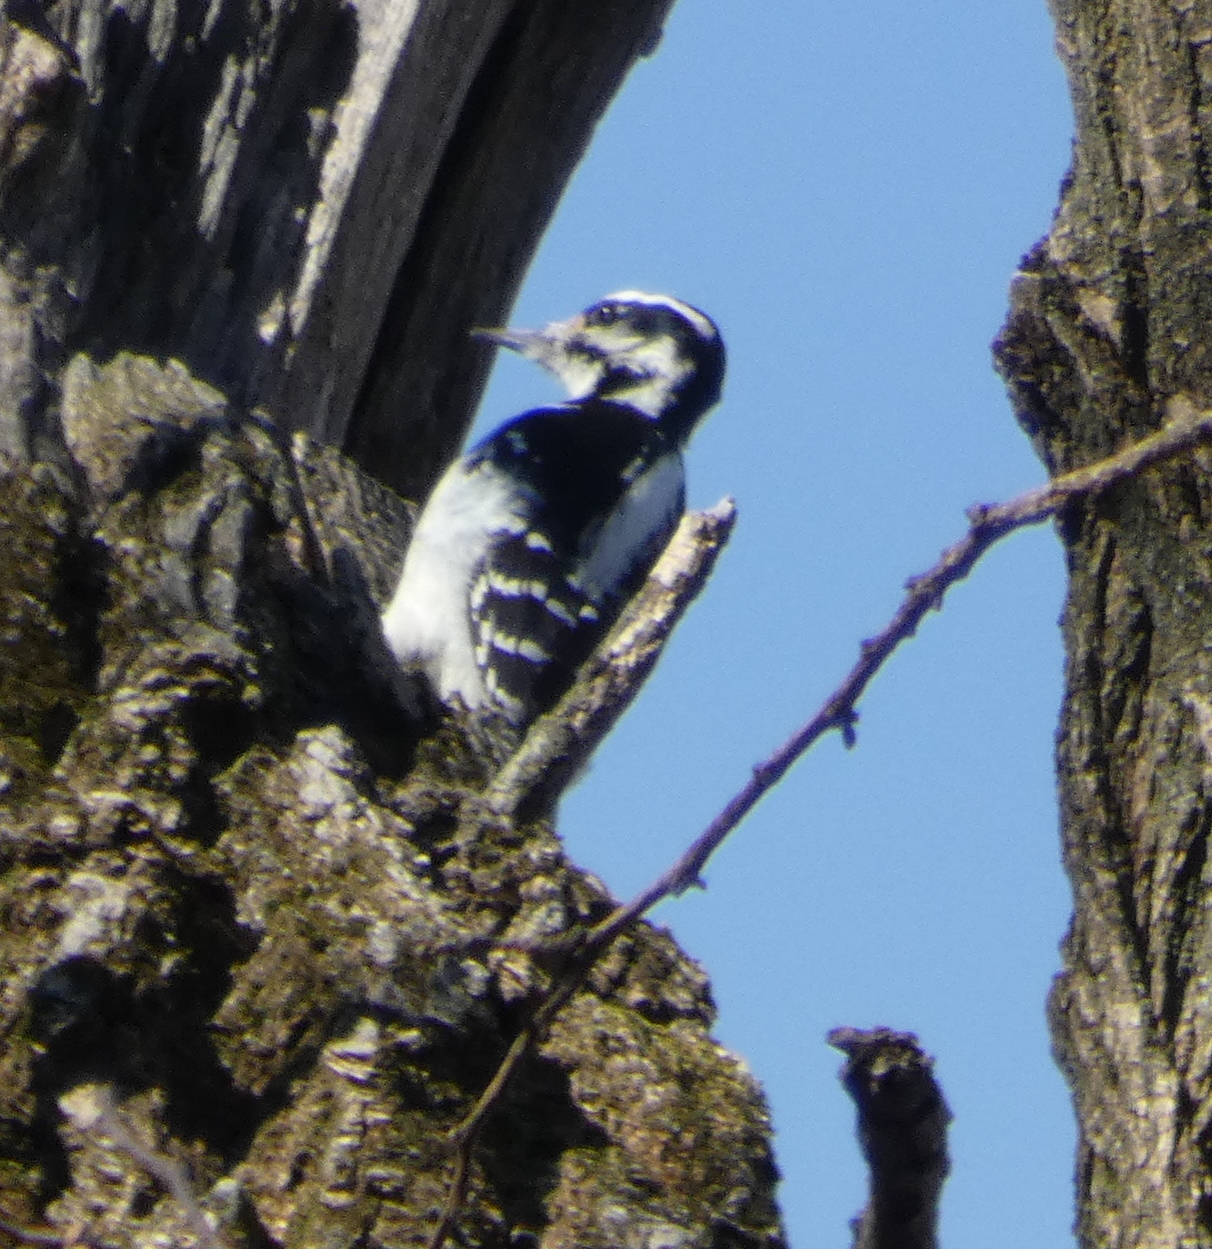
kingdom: Animalia
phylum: Chordata
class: Aves
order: Piciformes
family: Picidae
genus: Leuconotopicus
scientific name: Leuconotopicus villosus
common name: Hairy woodpecker
